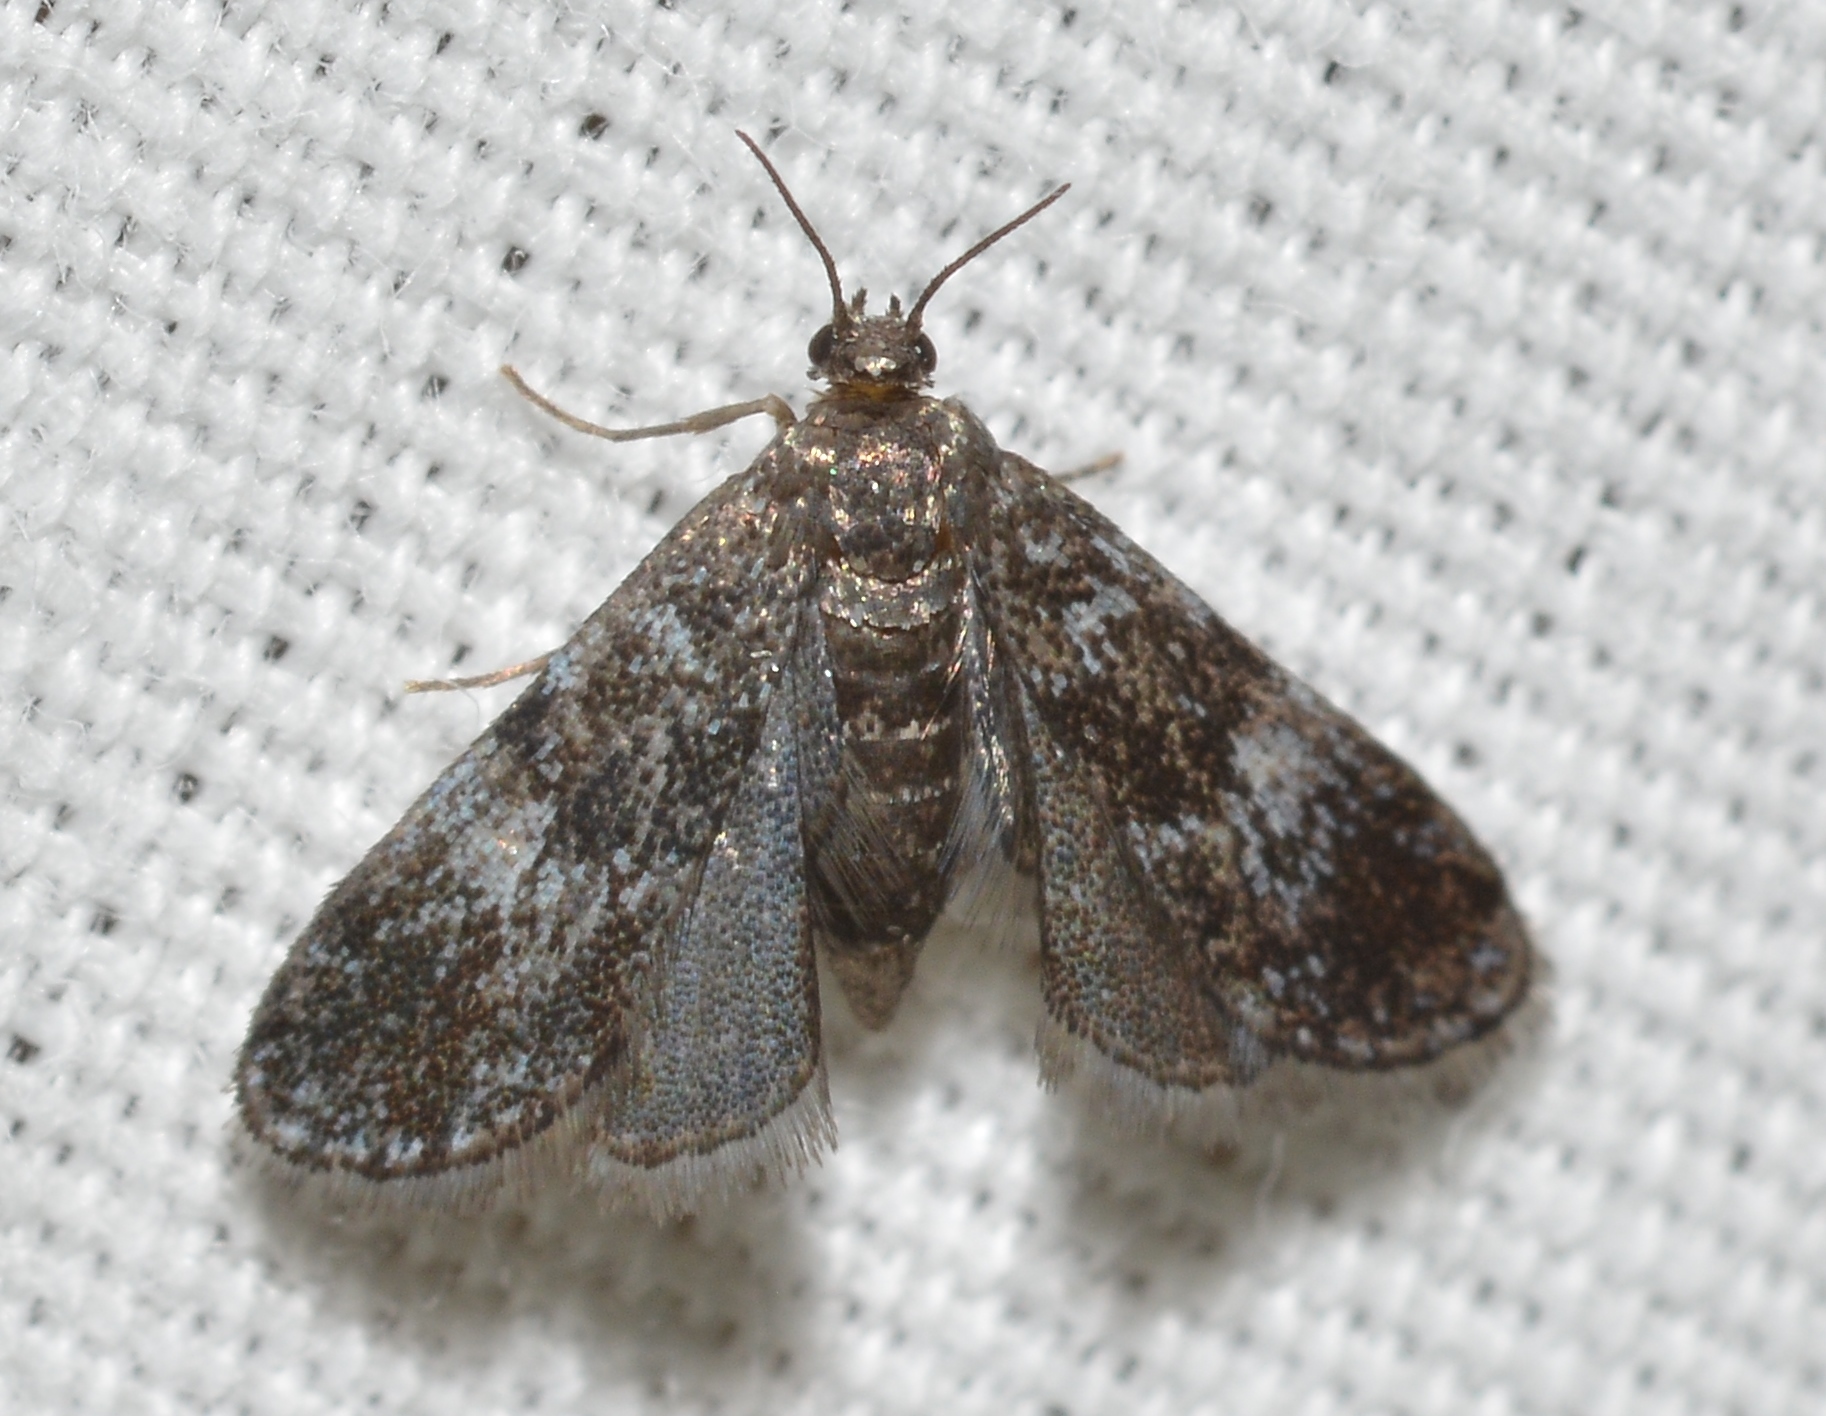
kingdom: Animalia
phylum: Arthropoda
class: Insecta
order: Lepidoptera
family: Crambidae
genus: Elophila
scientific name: Elophila tinealis
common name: Black duckweed moth
